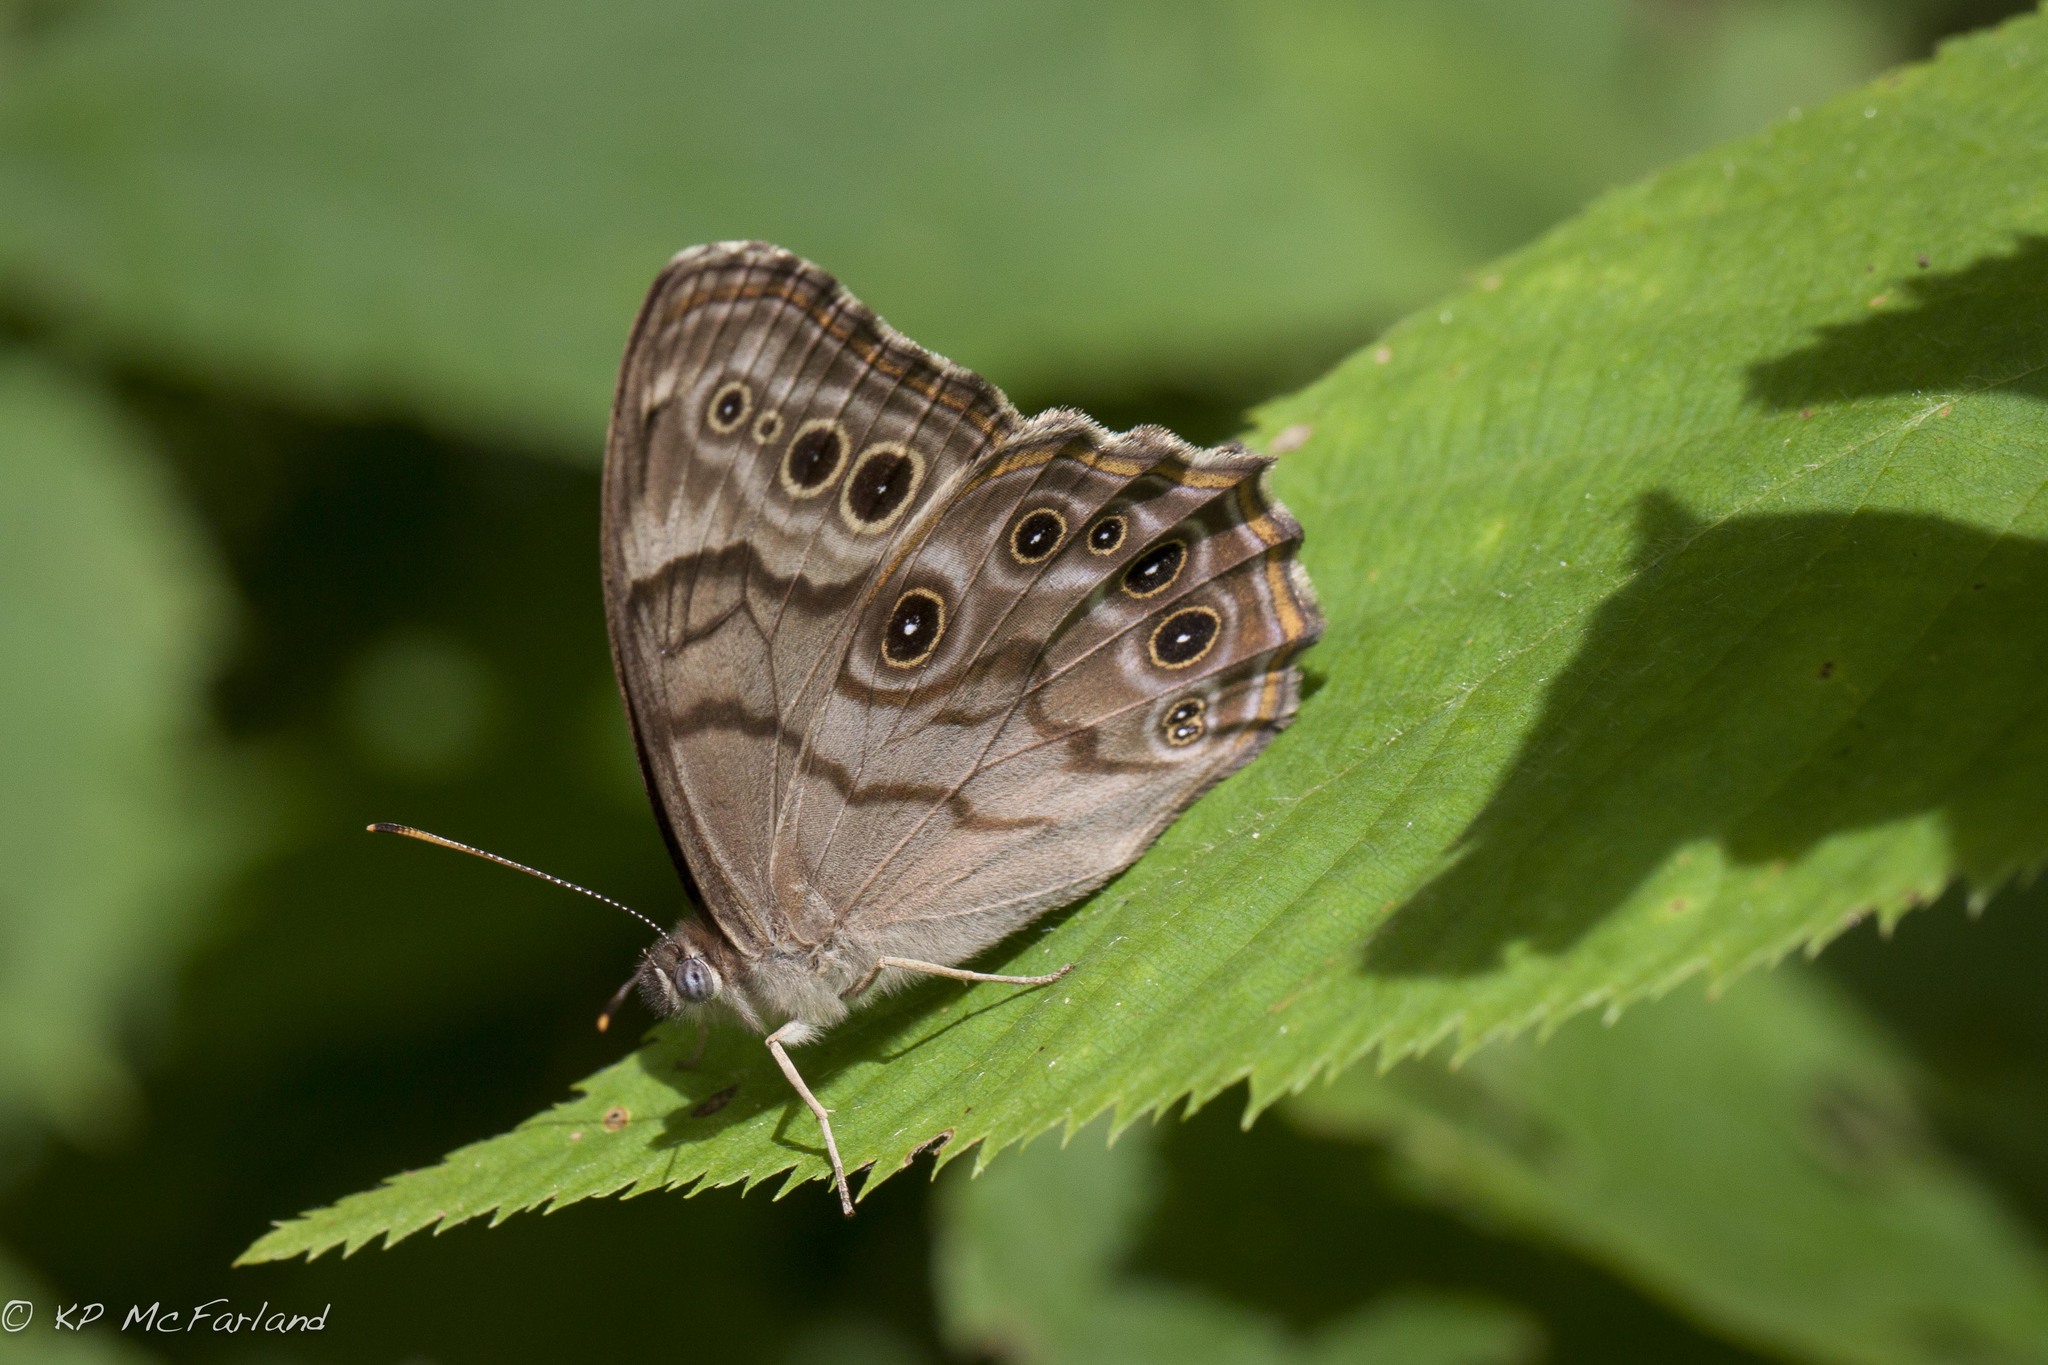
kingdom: Animalia
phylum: Arthropoda
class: Insecta
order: Lepidoptera
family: Nymphalidae
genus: Lethe
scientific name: Lethe anthedon
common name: Northern pearly-eye
